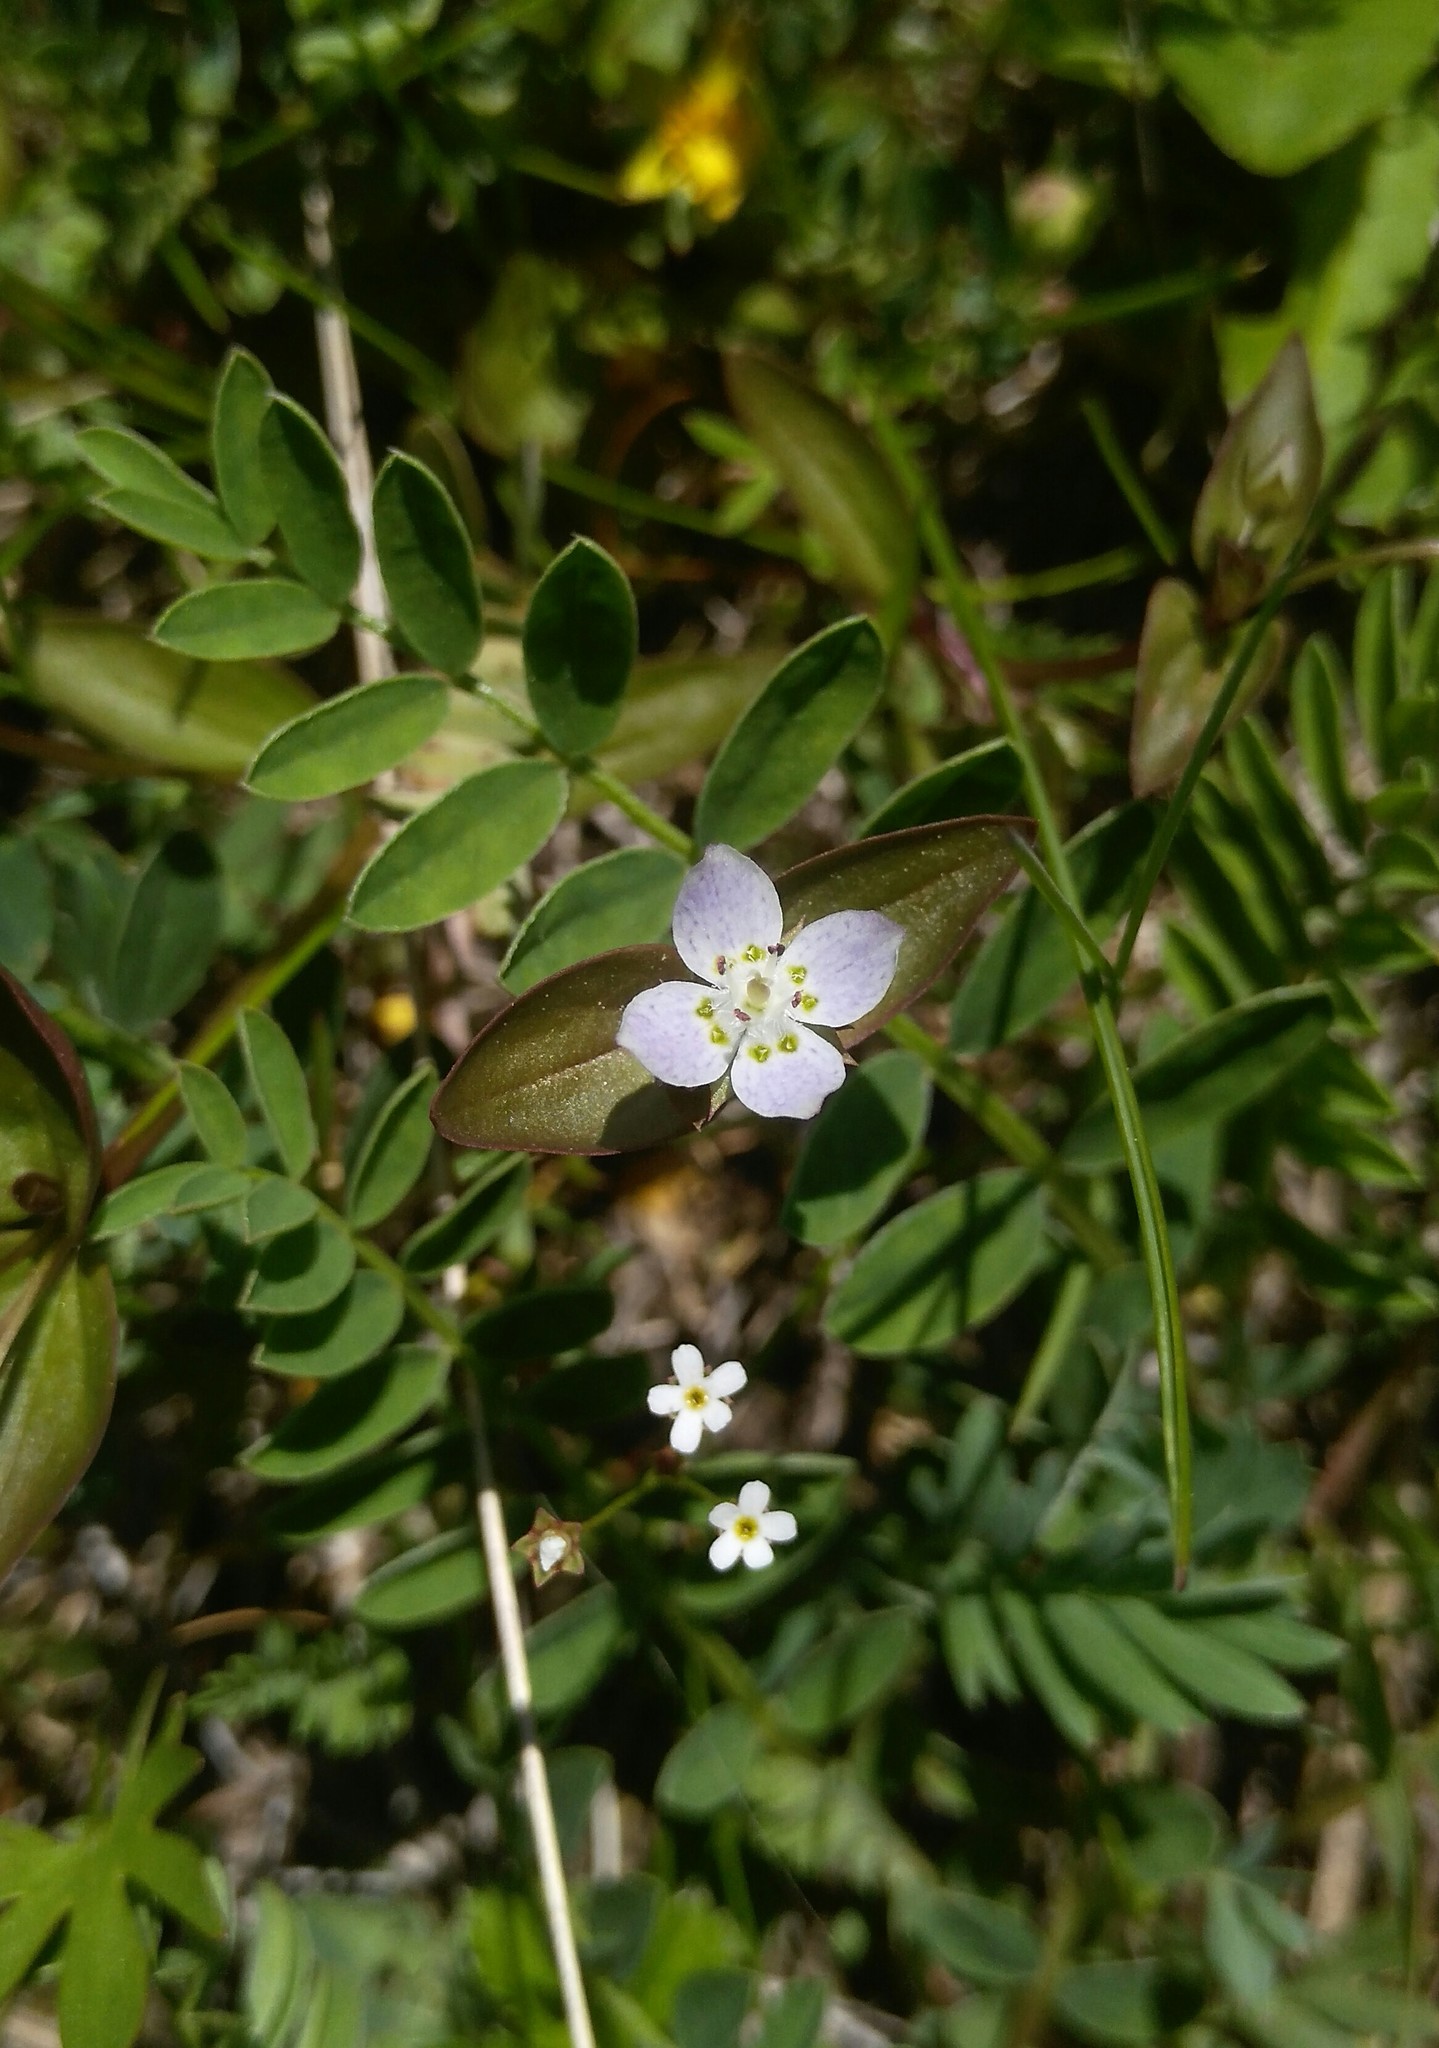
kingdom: Plantae
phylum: Tracheophyta
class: Magnoliopsida
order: Gentianales
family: Gentianaceae
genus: Swertia
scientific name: Swertia dichotoma
